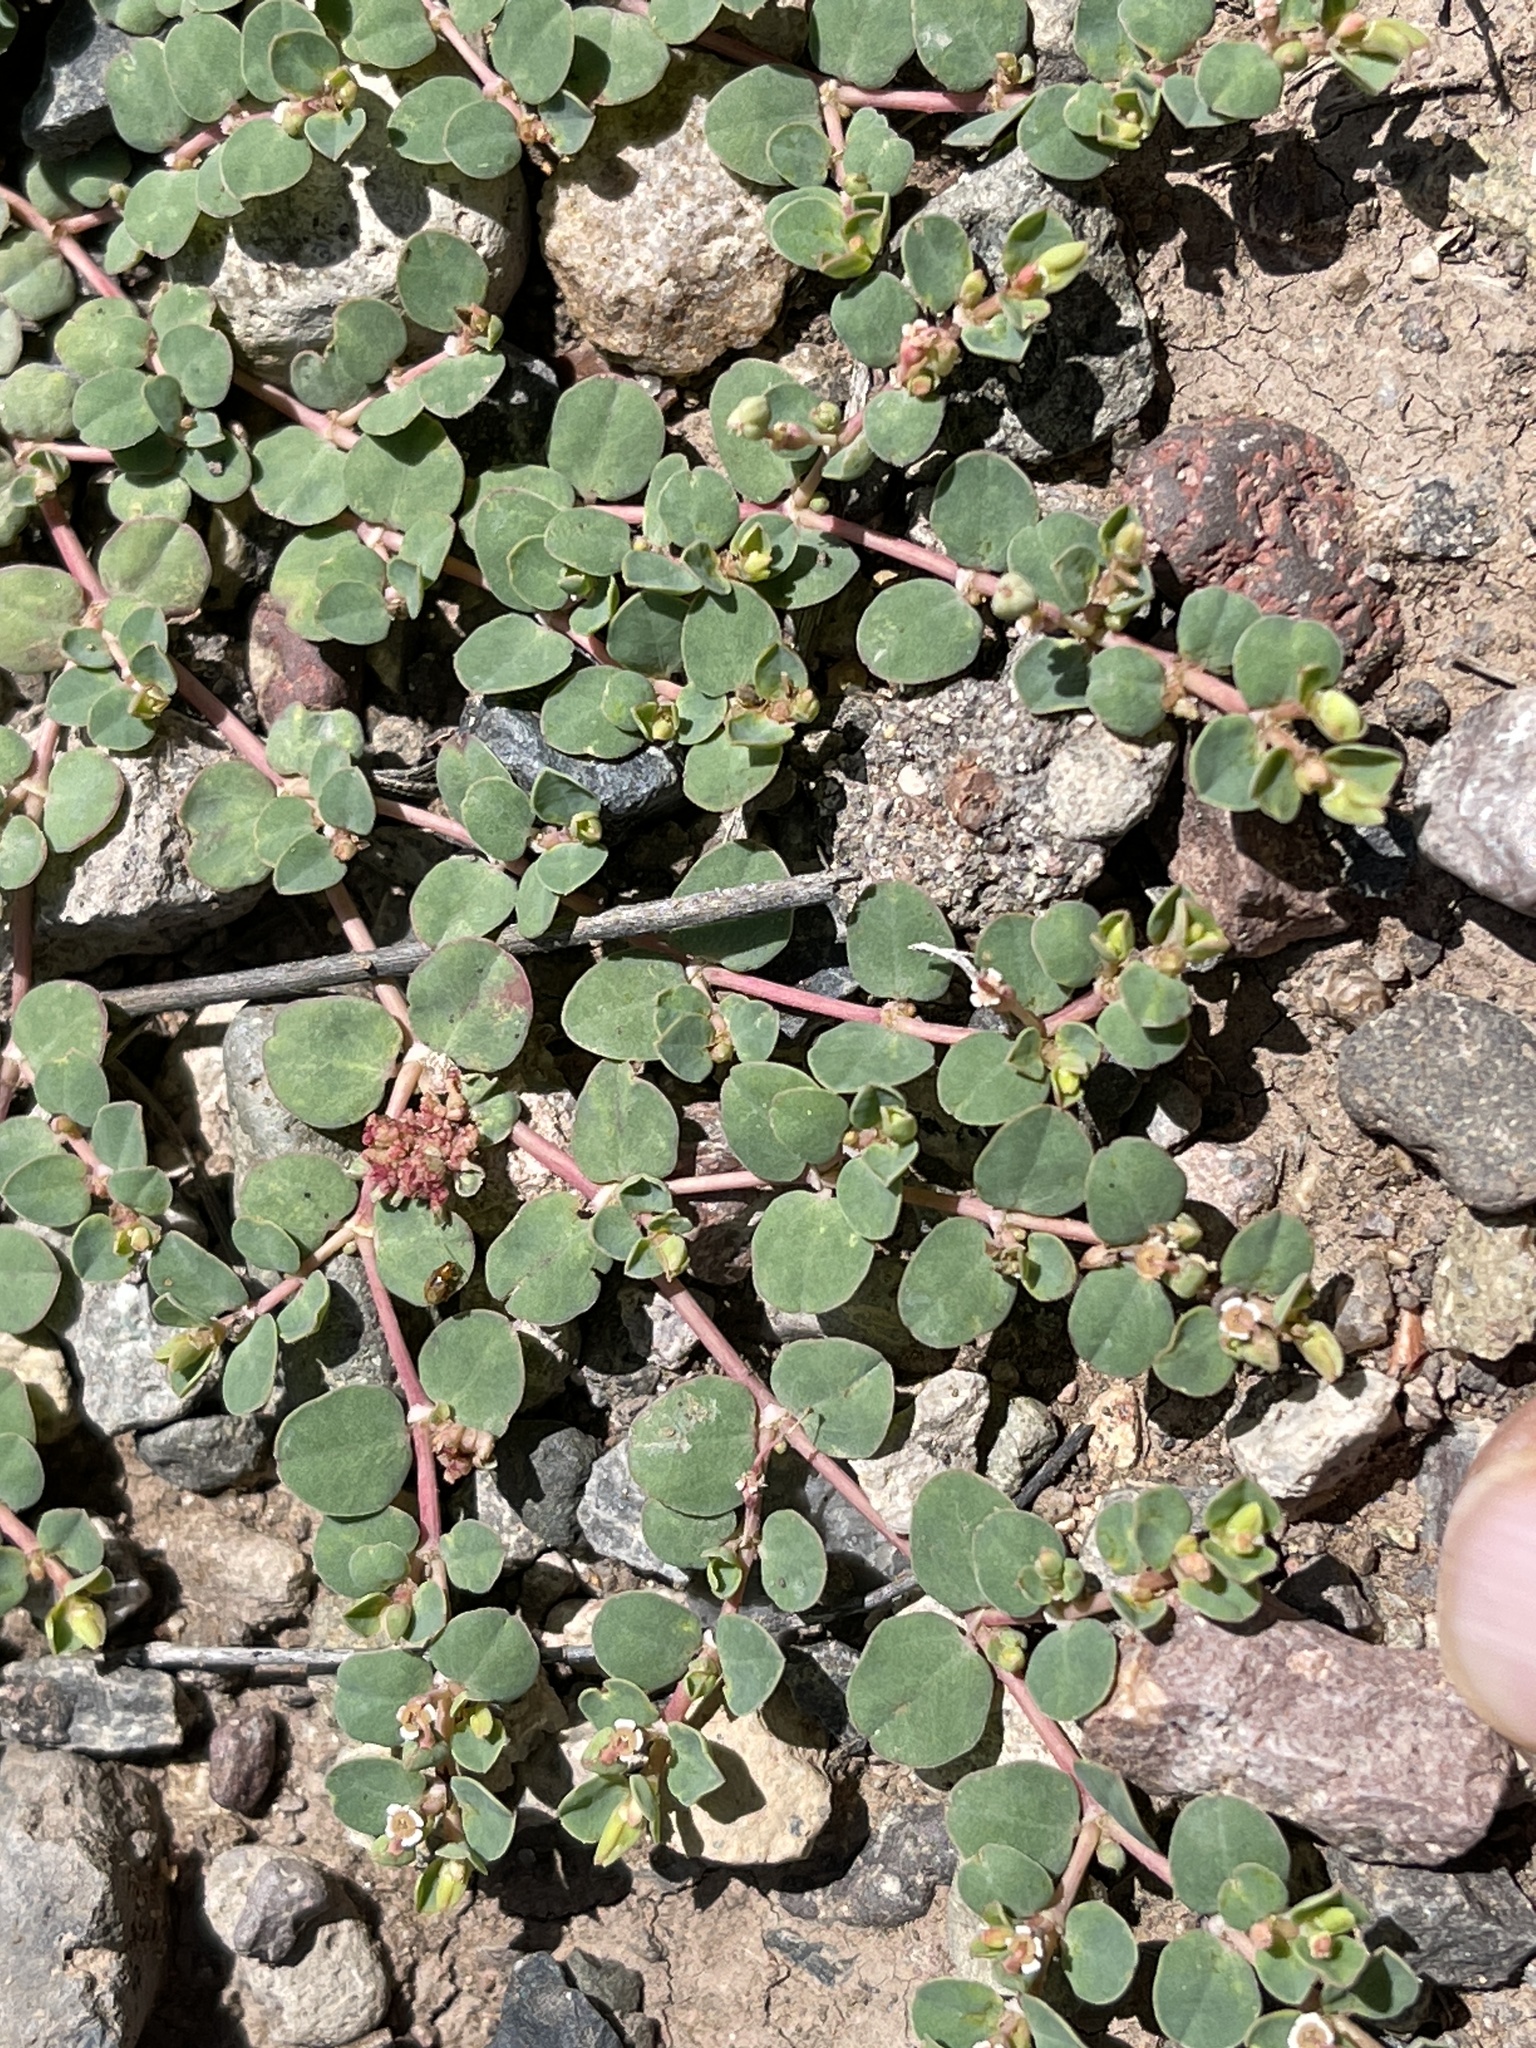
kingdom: Plantae
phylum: Tracheophyta
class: Magnoliopsida
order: Malpighiales
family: Euphorbiaceae
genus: Euphorbia
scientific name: Euphorbia albomarginata
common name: Whitemargin sandmat
